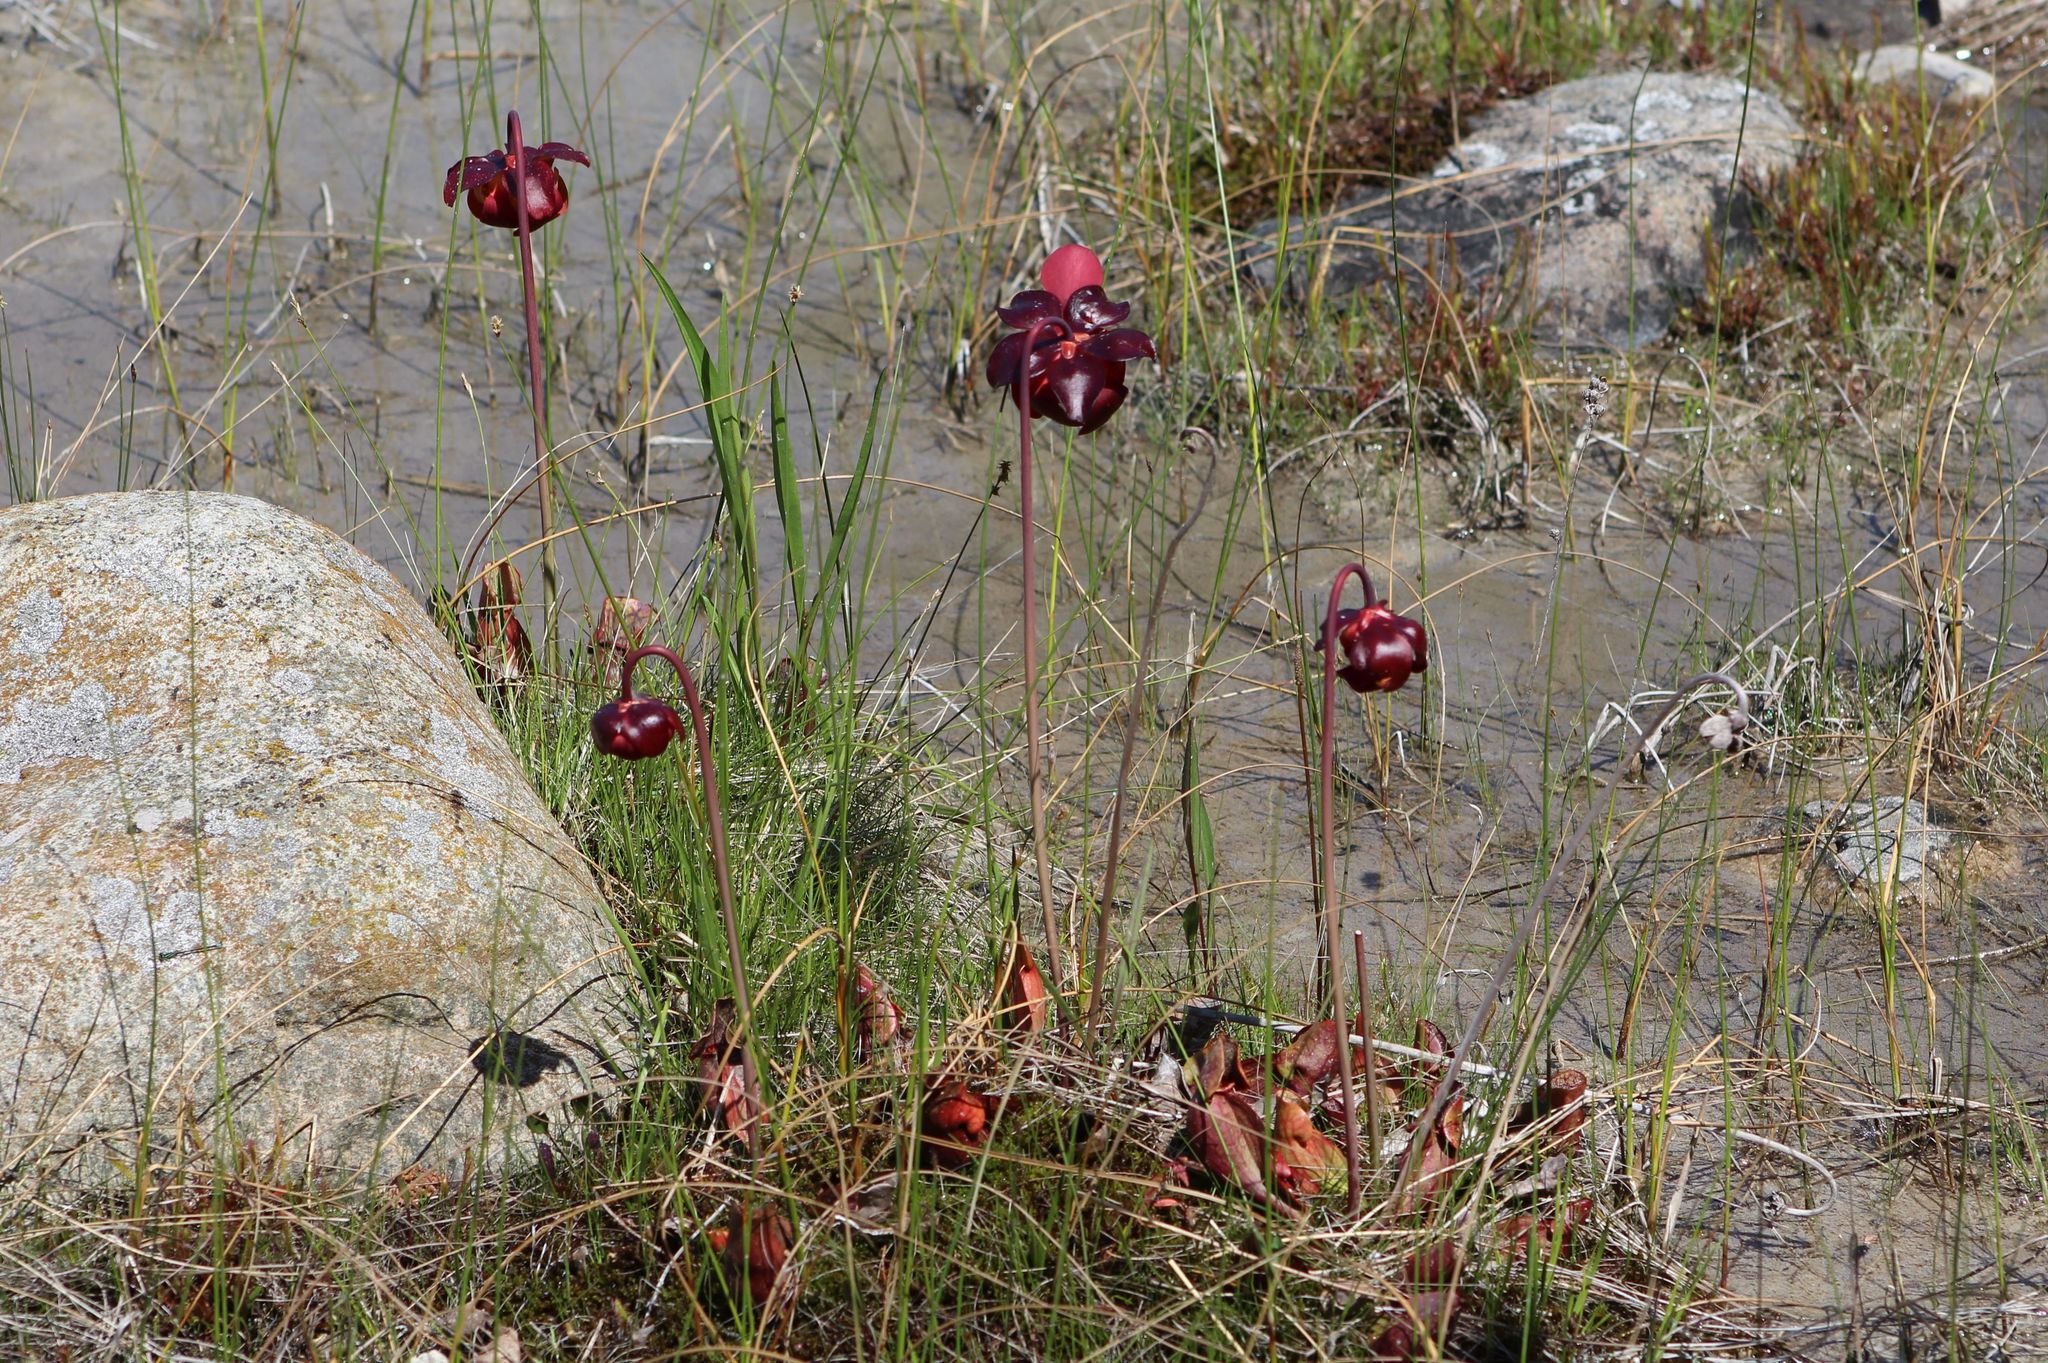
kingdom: Plantae
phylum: Tracheophyta
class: Magnoliopsida
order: Ericales
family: Sarraceniaceae
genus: Sarracenia
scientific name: Sarracenia purpurea
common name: Pitcherplant
